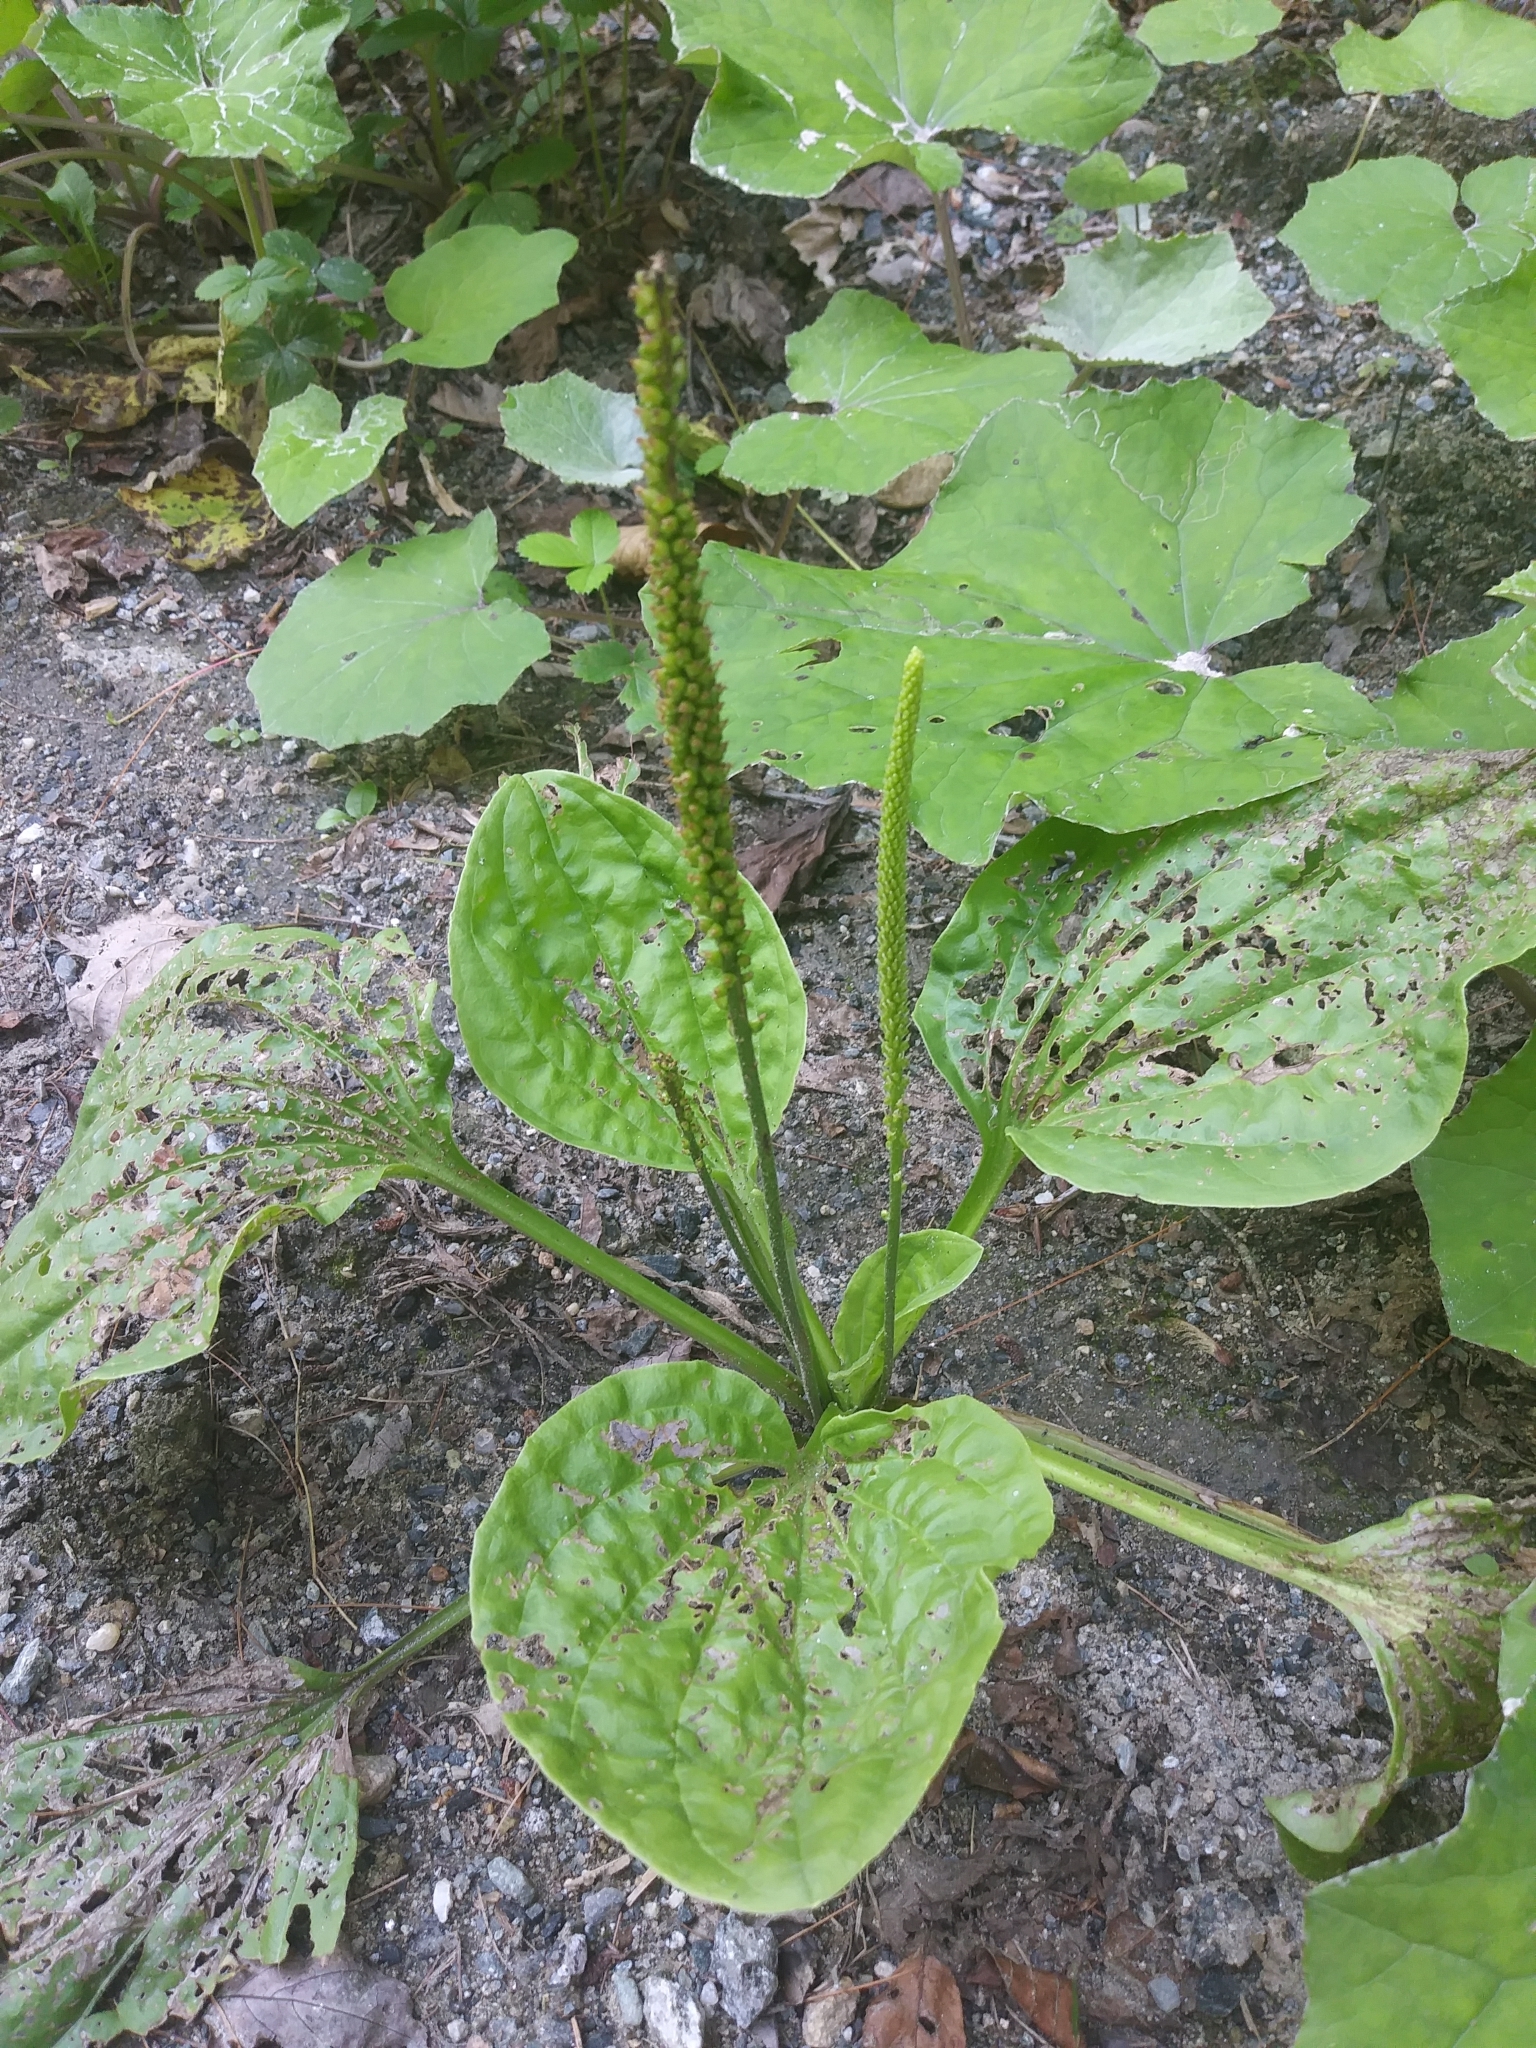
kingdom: Plantae
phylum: Tracheophyta
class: Magnoliopsida
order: Lamiales
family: Plantaginaceae
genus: Plantago
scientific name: Plantago major
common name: Common plantain
